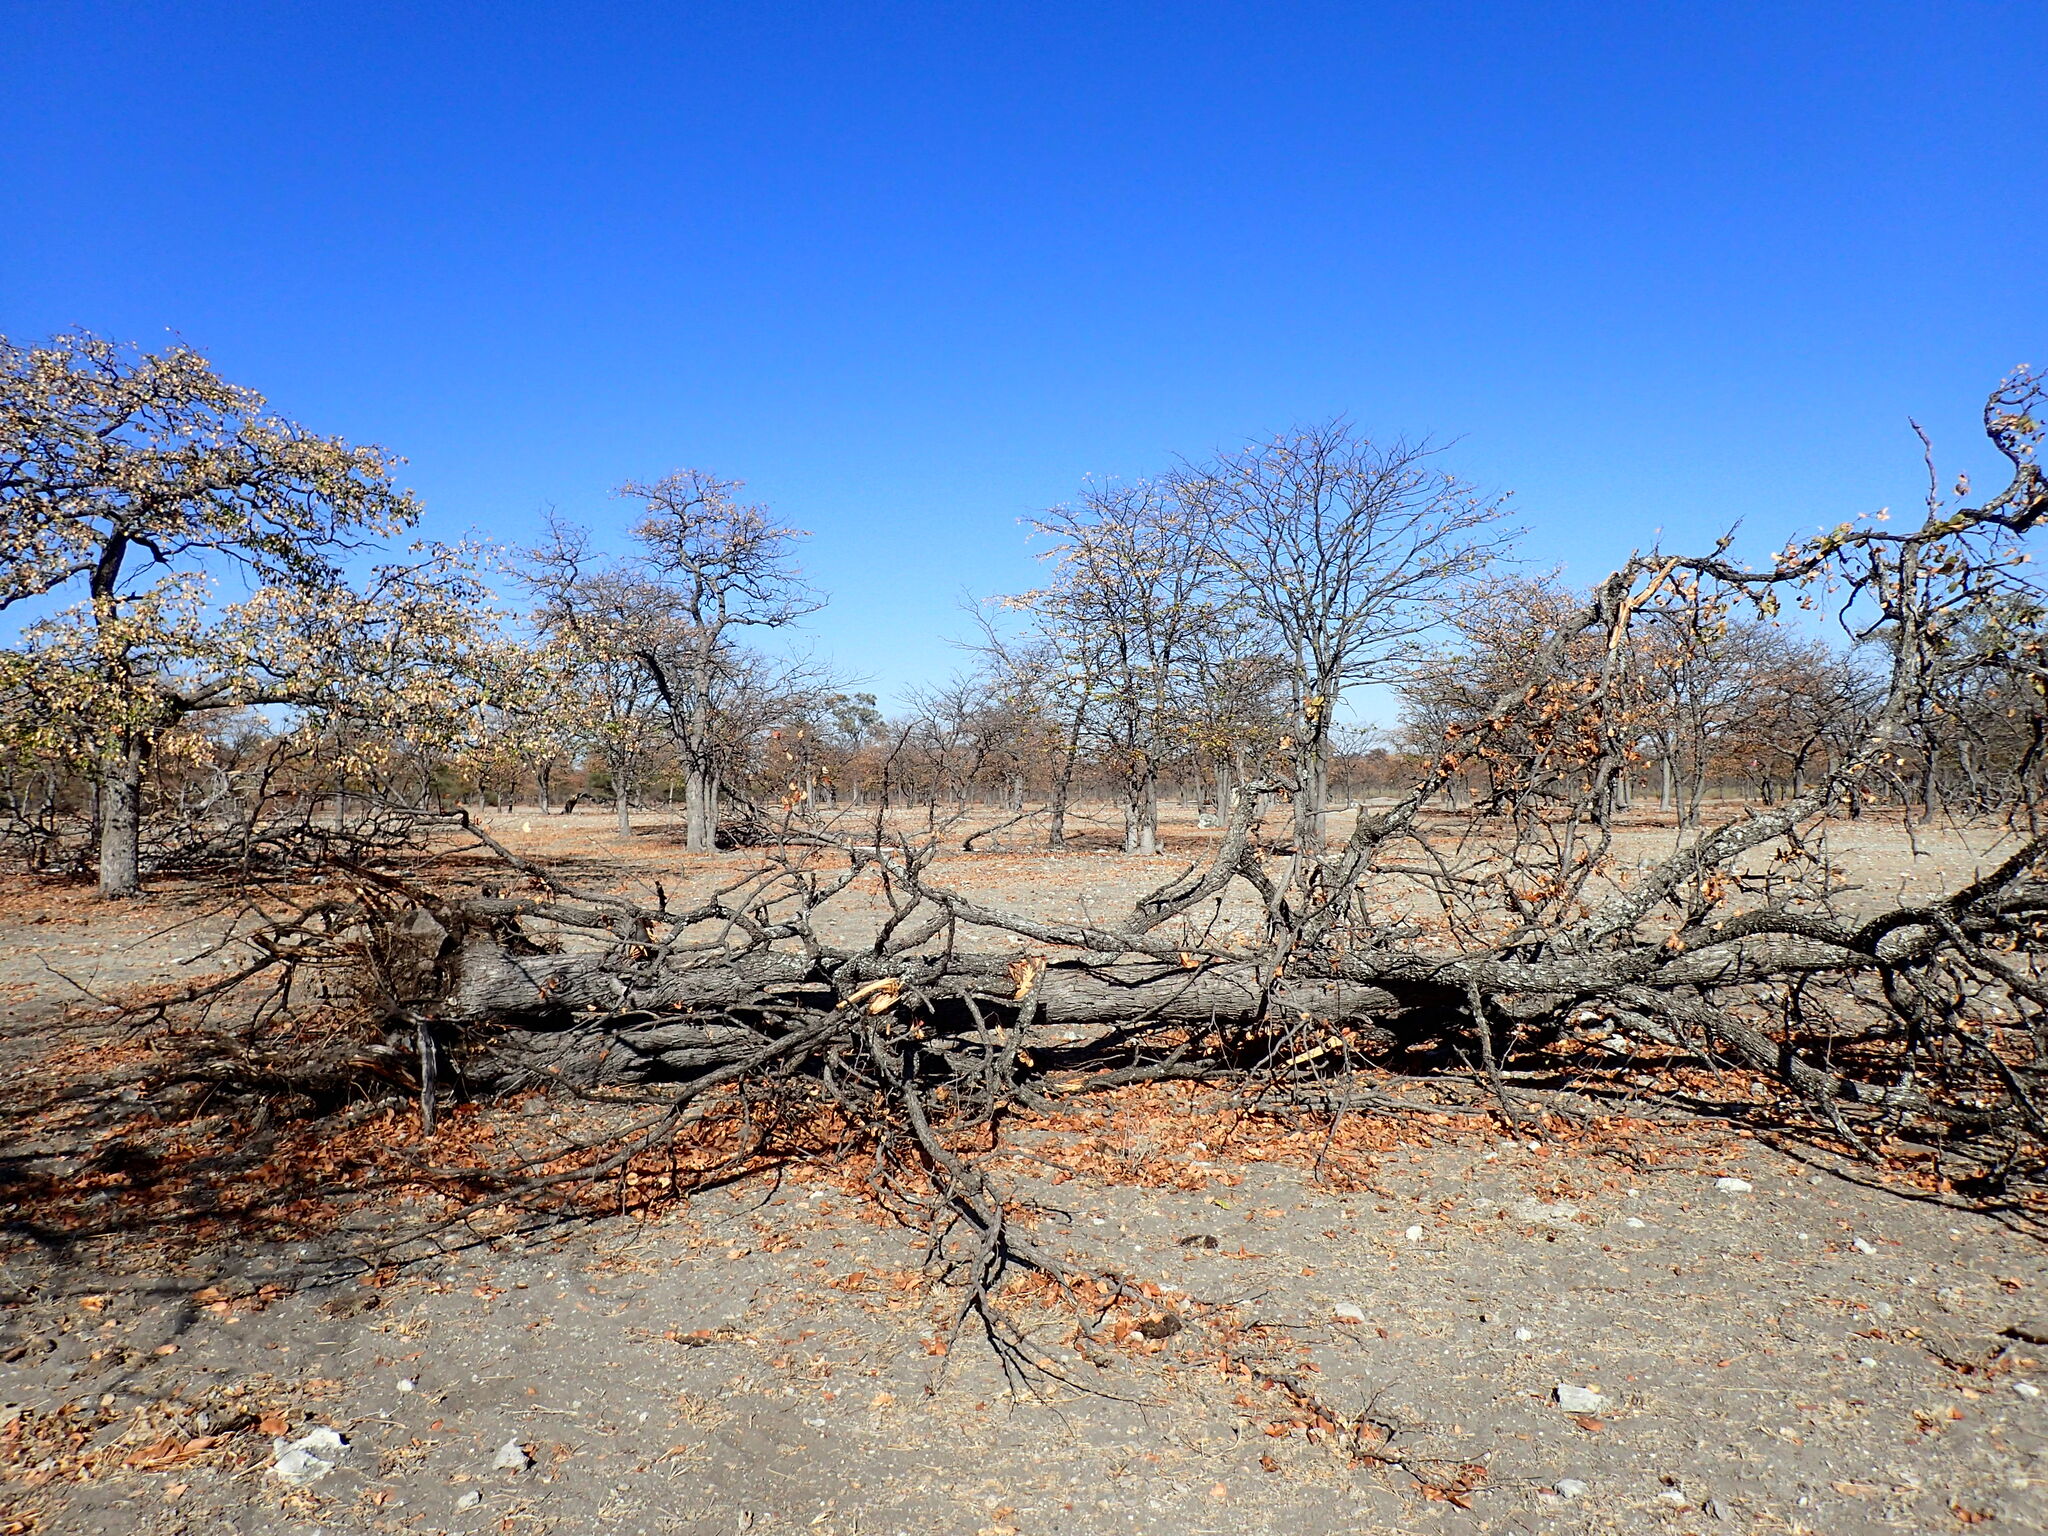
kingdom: Plantae
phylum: Tracheophyta
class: Magnoliopsida
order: Fabales
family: Fabaceae
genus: Colophospermum
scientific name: Colophospermum mopane
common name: Mopane
